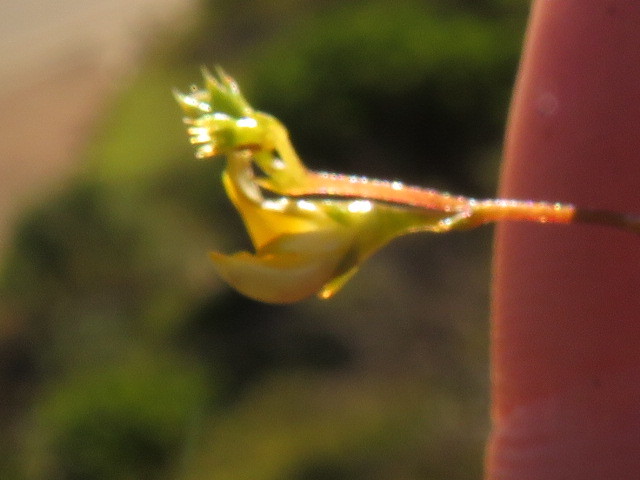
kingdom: Plantae
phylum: Tracheophyta
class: Magnoliopsida
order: Fabales
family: Fabaceae
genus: Aspalathus
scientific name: Aspalathus serpens
